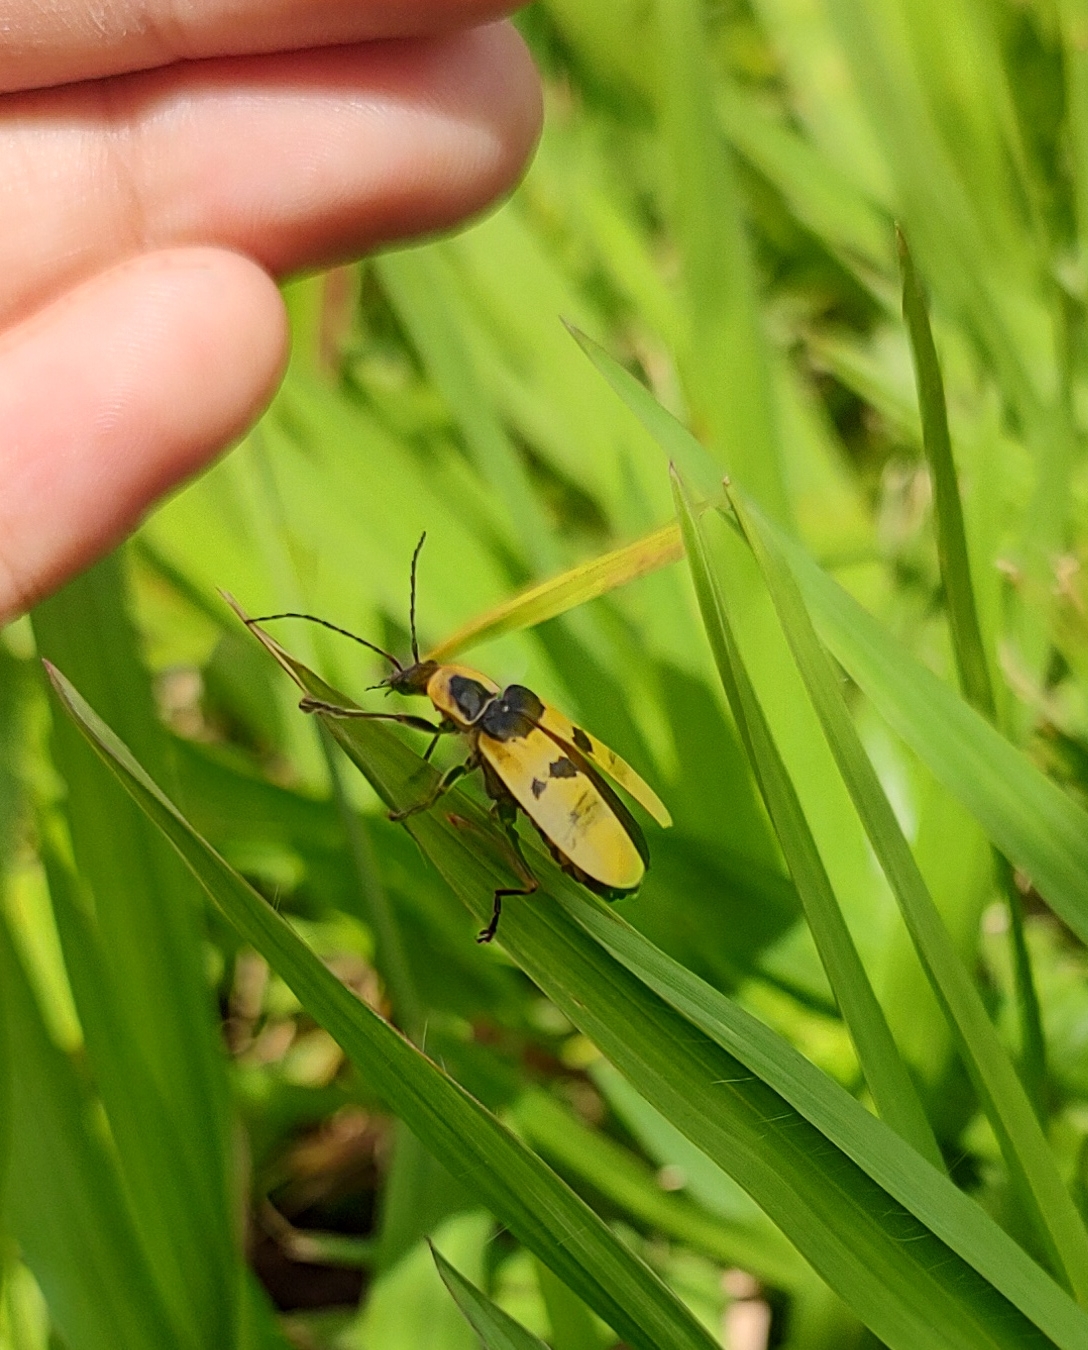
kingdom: Animalia
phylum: Arthropoda
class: Insecta
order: Coleoptera
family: Cantharidae
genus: Chauliognathus
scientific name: Chauliognathus
